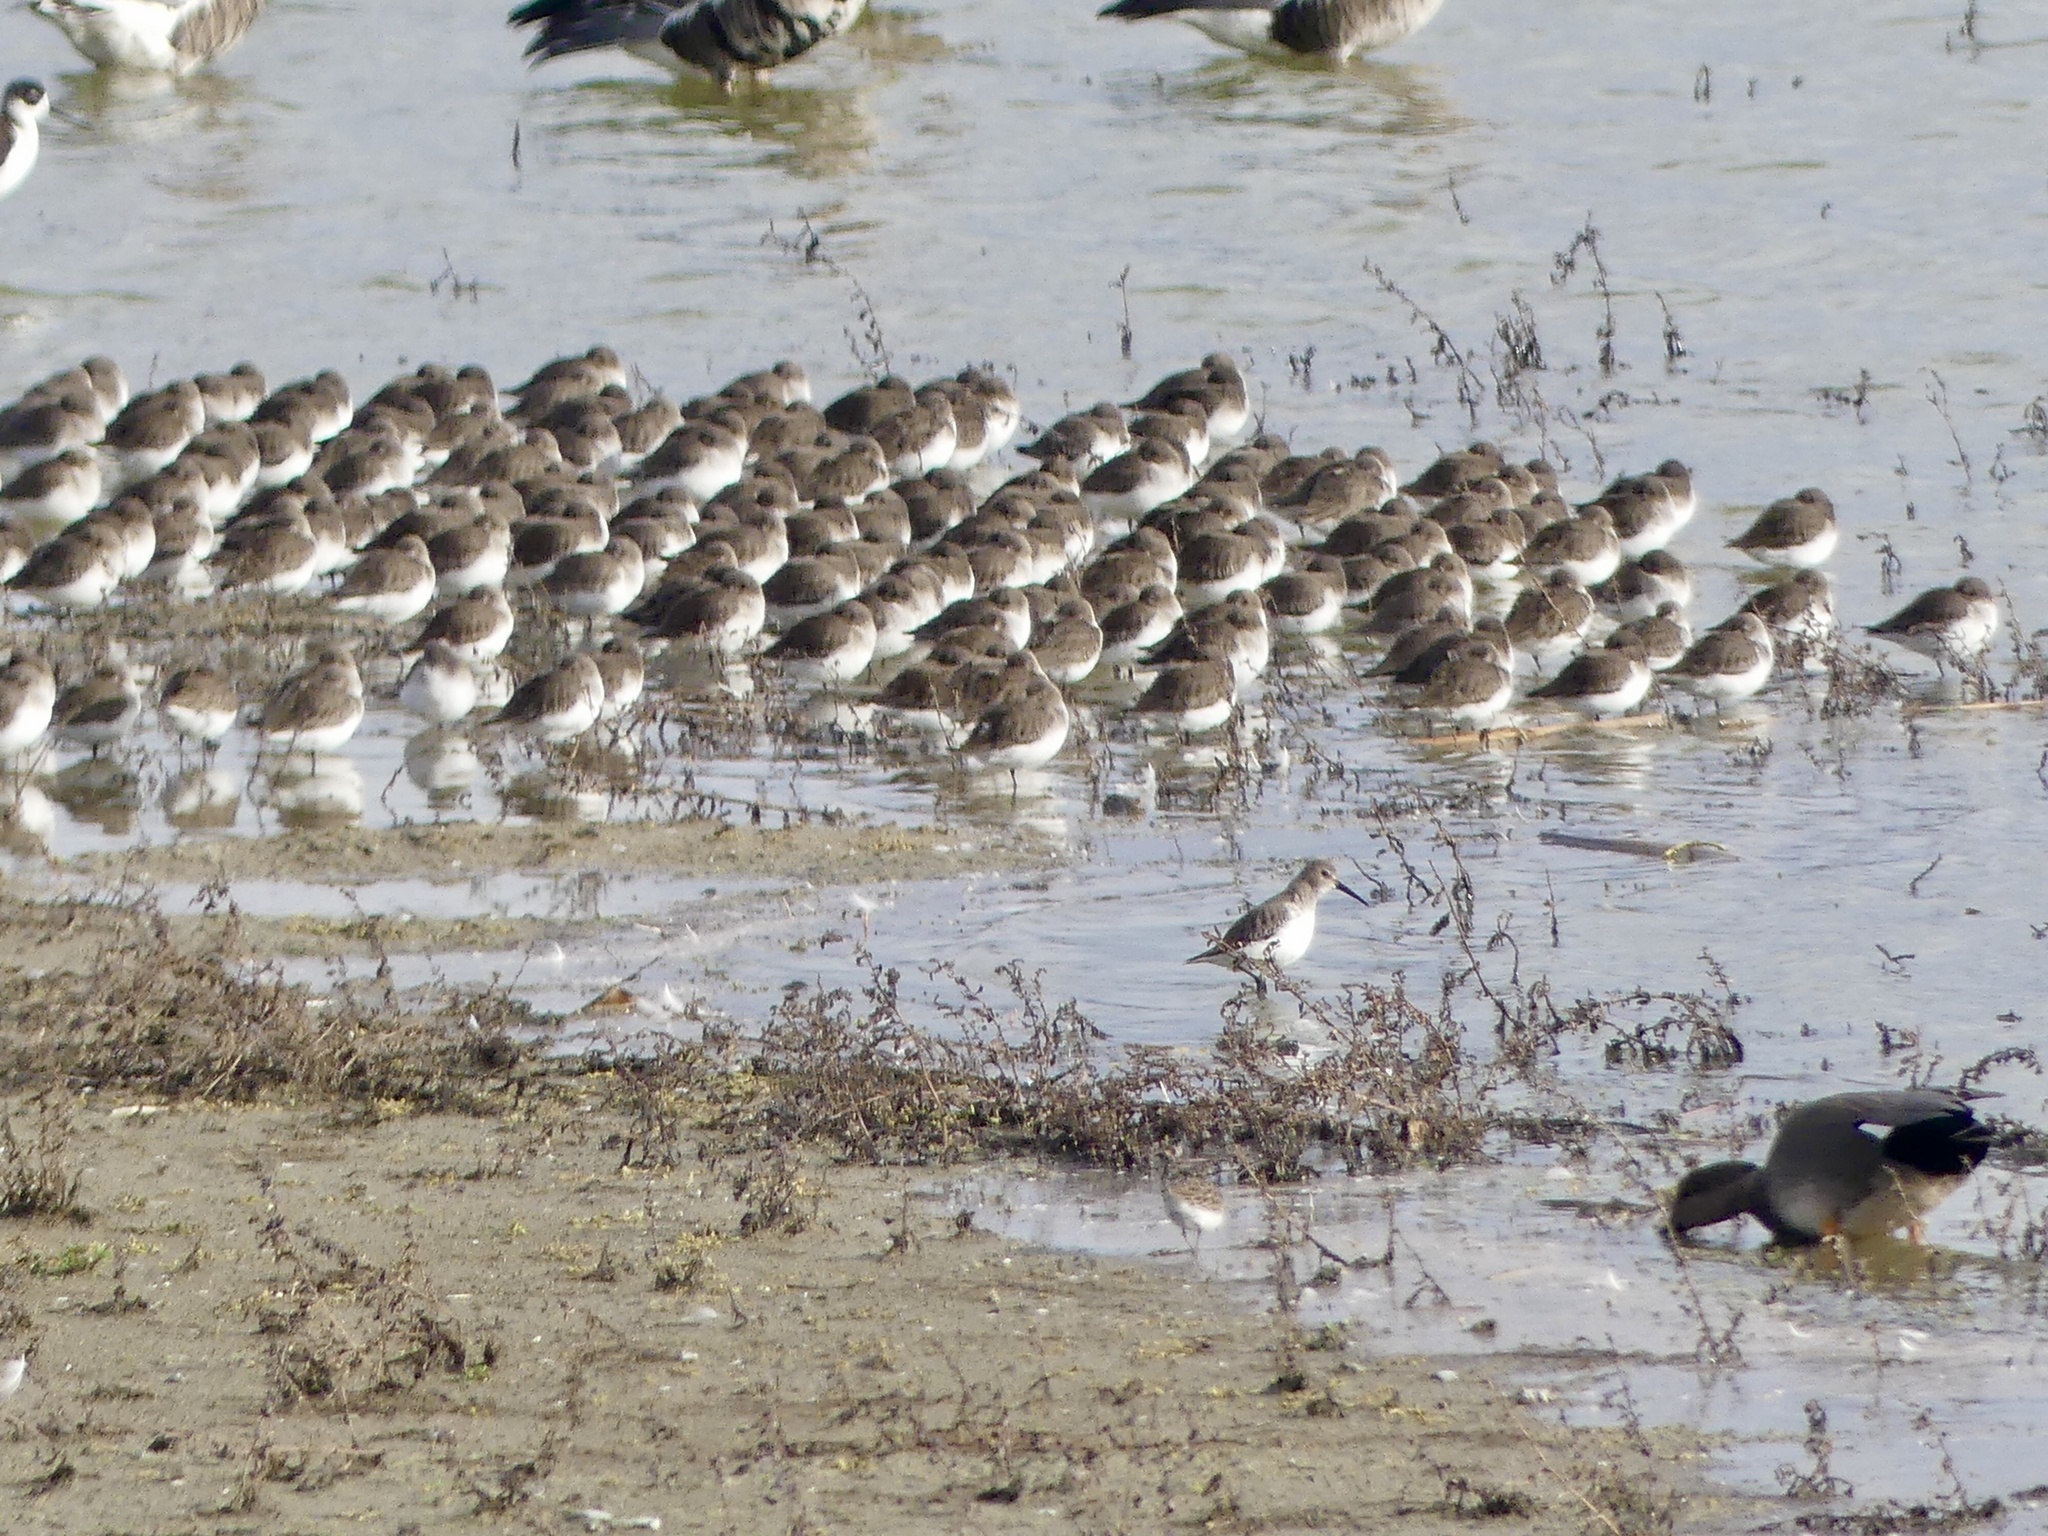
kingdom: Animalia
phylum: Chordata
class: Aves
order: Charadriiformes
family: Scolopacidae
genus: Calidris
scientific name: Calidris alpina
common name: Dunlin
